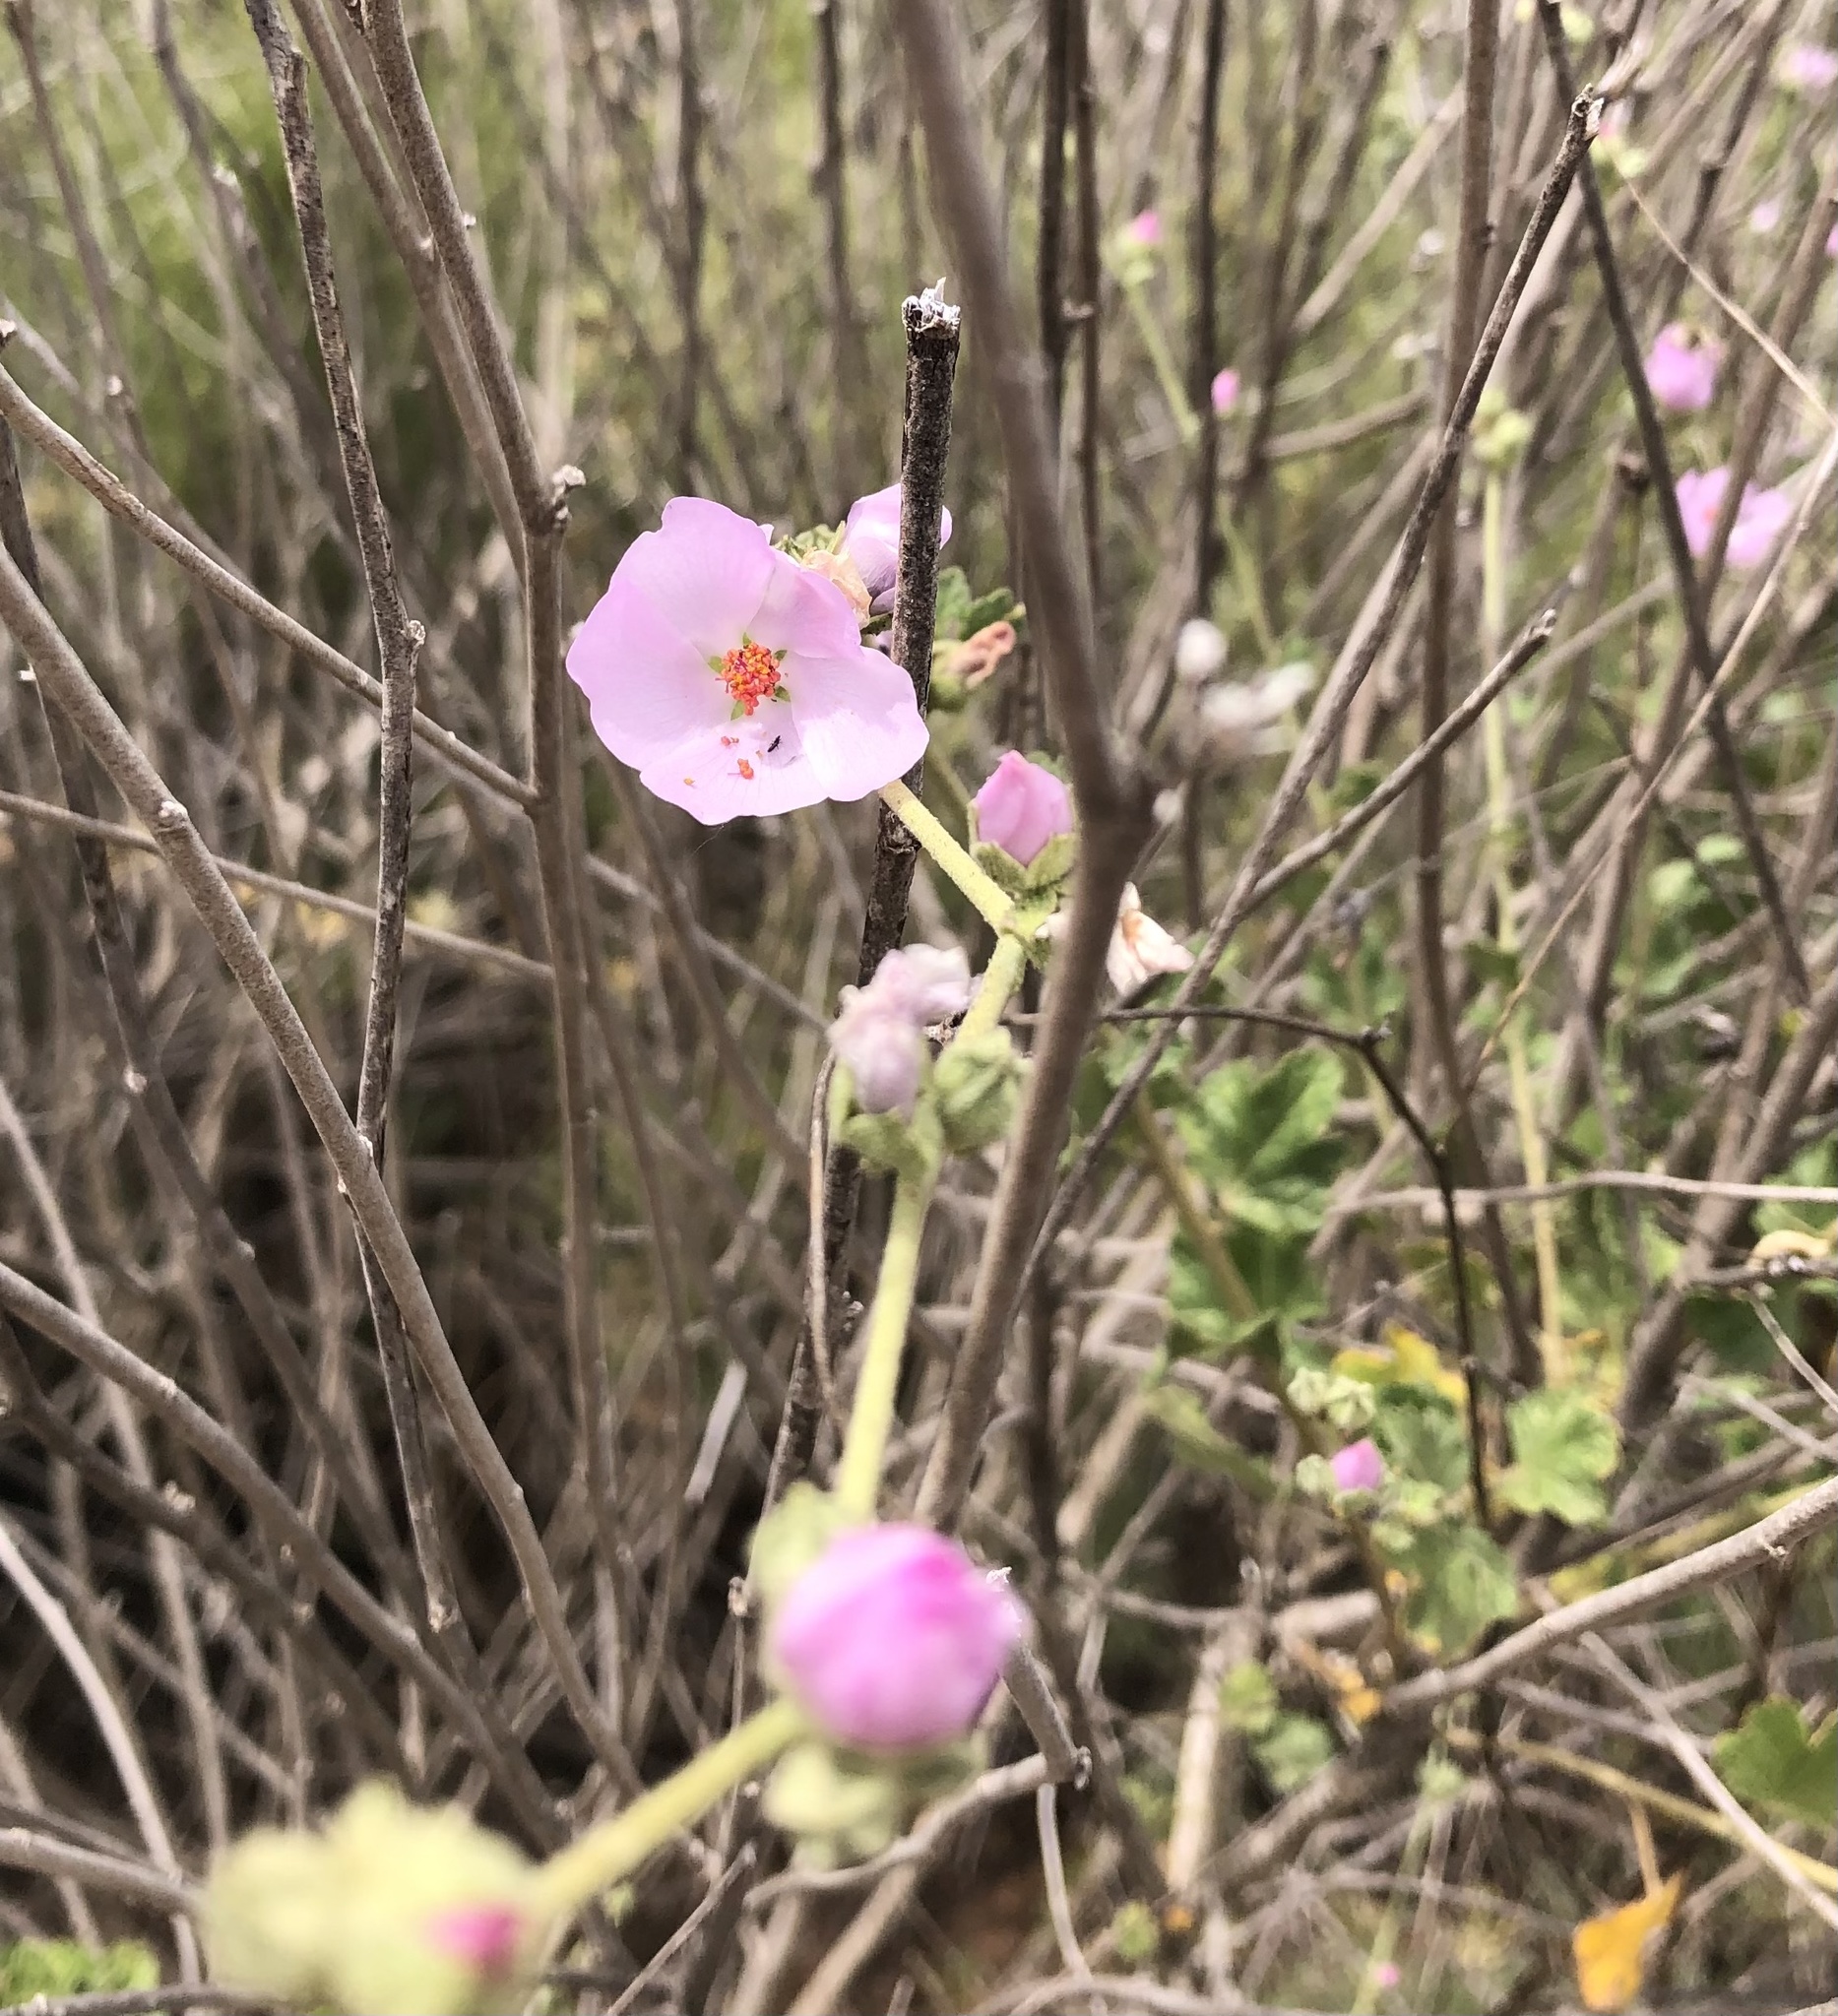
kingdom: Plantae
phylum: Tracheophyta
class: Magnoliopsida
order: Malvales
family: Malvaceae
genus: Malacothamnus
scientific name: Malacothamnus fasciculatus
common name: Sant cruz island bush-mallow
